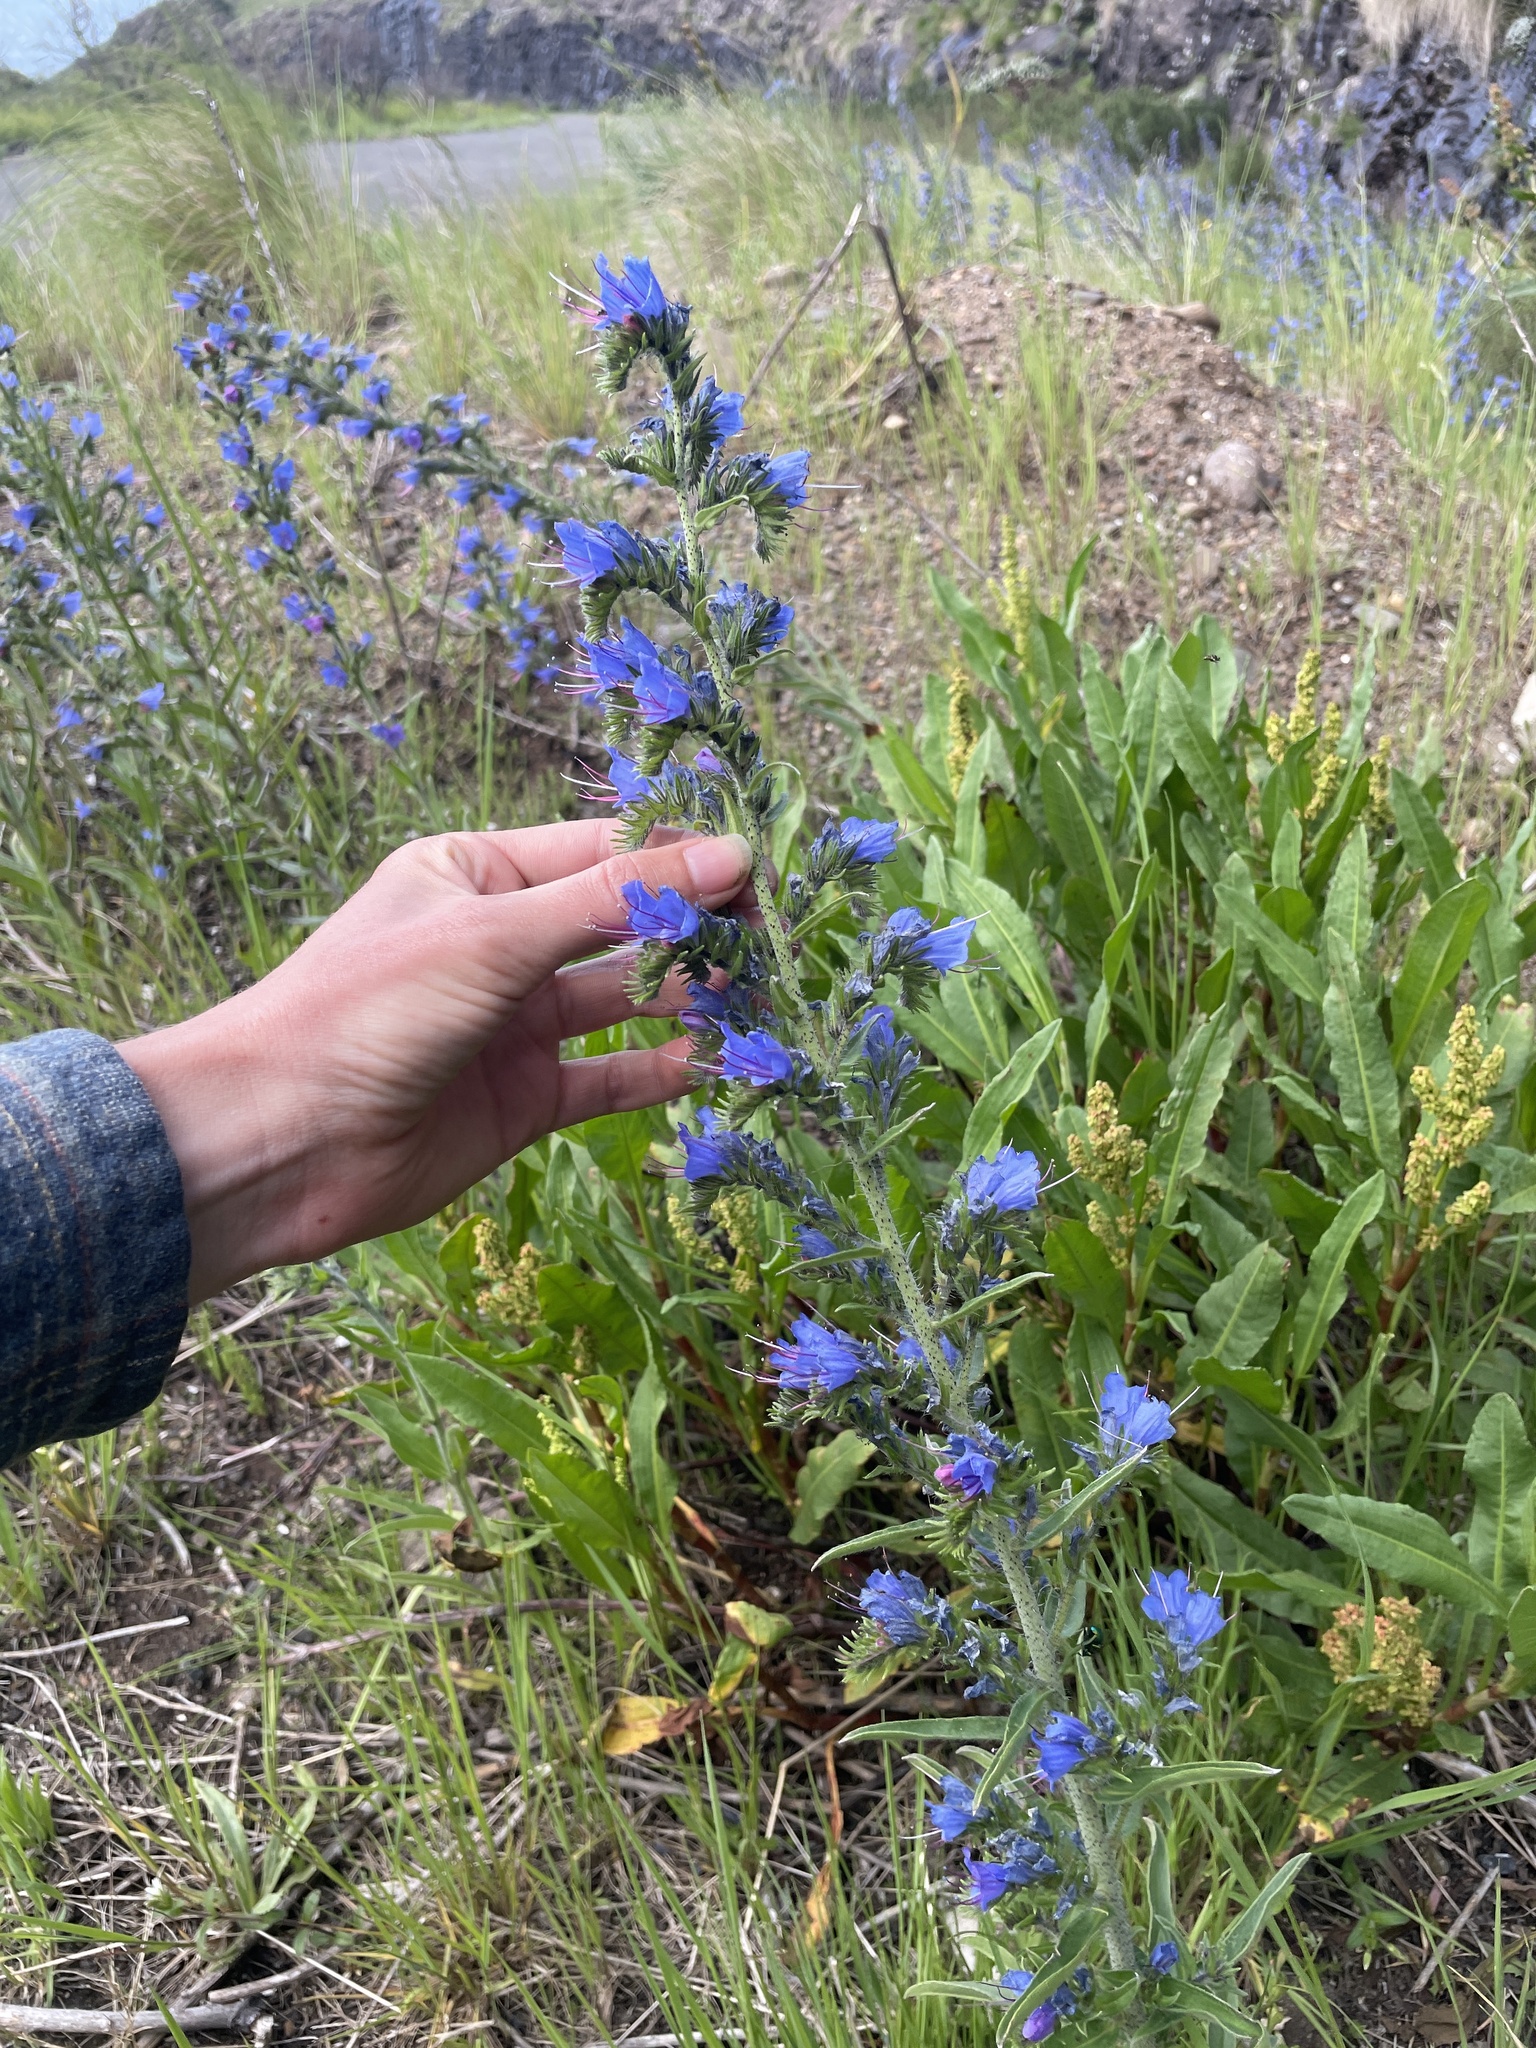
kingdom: Plantae
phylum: Tracheophyta
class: Magnoliopsida
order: Boraginales
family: Boraginaceae
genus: Echium
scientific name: Echium vulgare
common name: Common viper's bugloss
